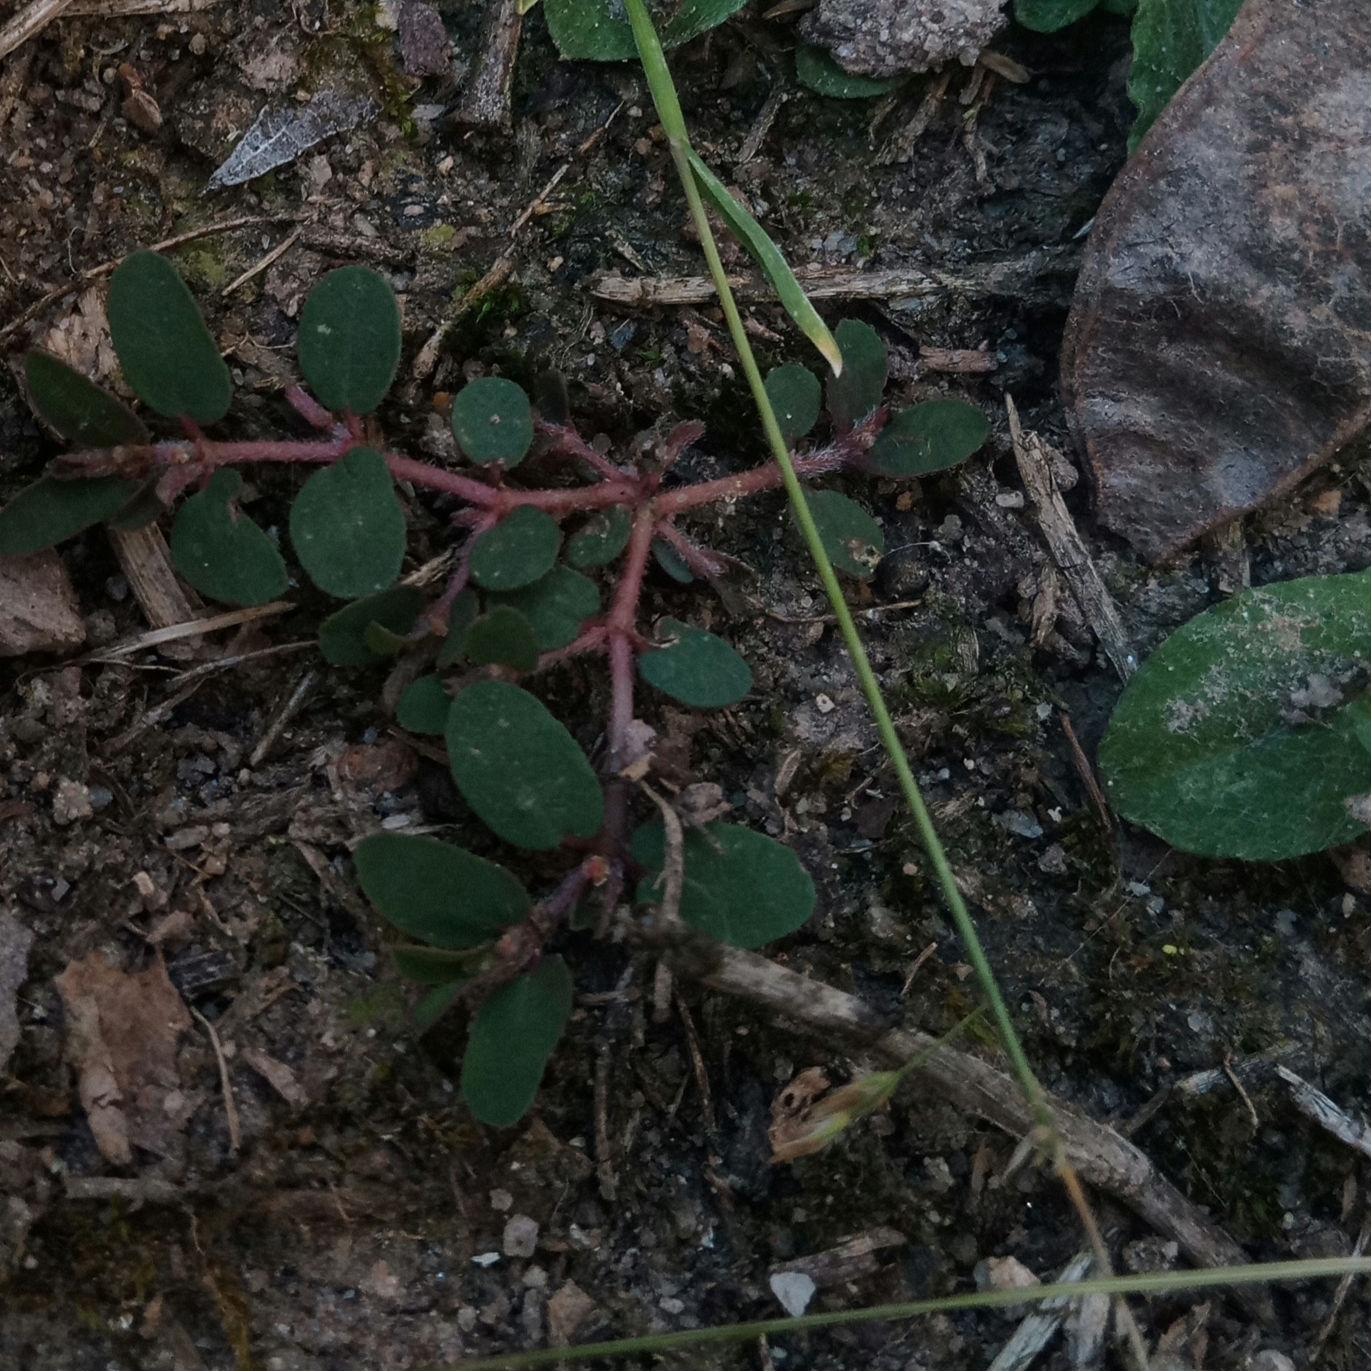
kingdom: Plantae
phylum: Tracheophyta
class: Magnoliopsida
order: Malpighiales
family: Euphorbiaceae
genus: Euphorbia
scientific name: Euphorbia maculata
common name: Spotted spurge
